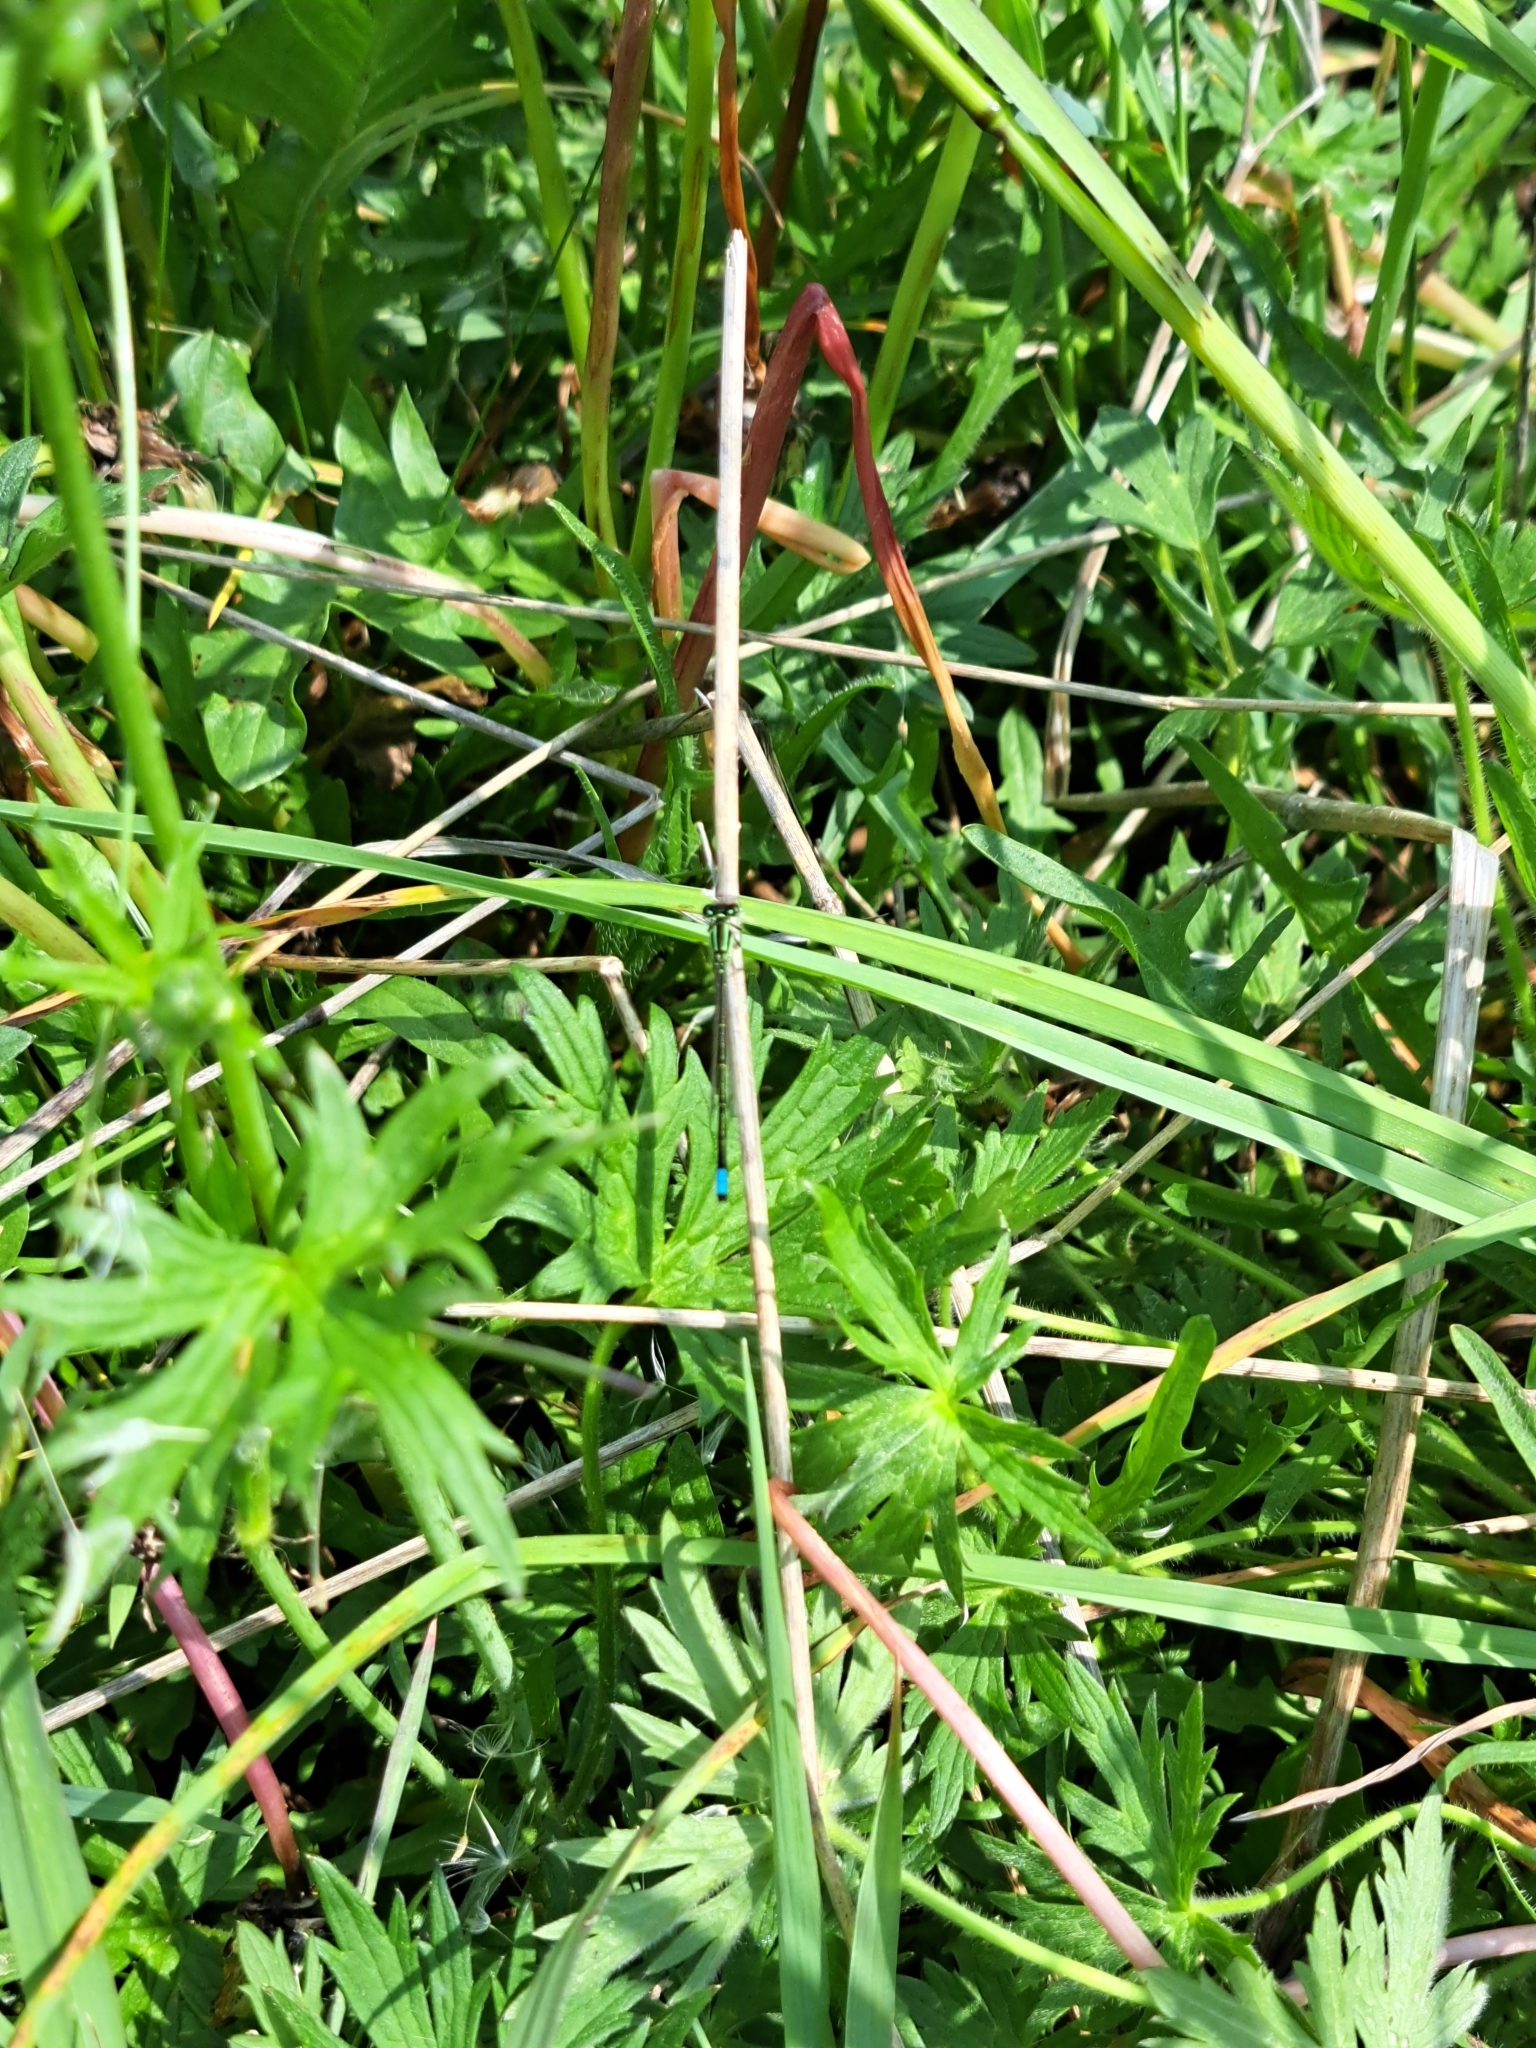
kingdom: Animalia
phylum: Arthropoda
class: Insecta
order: Odonata
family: Coenagrionidae
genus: Ischnura
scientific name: Ischnura verticalis
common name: Eastern forktail
